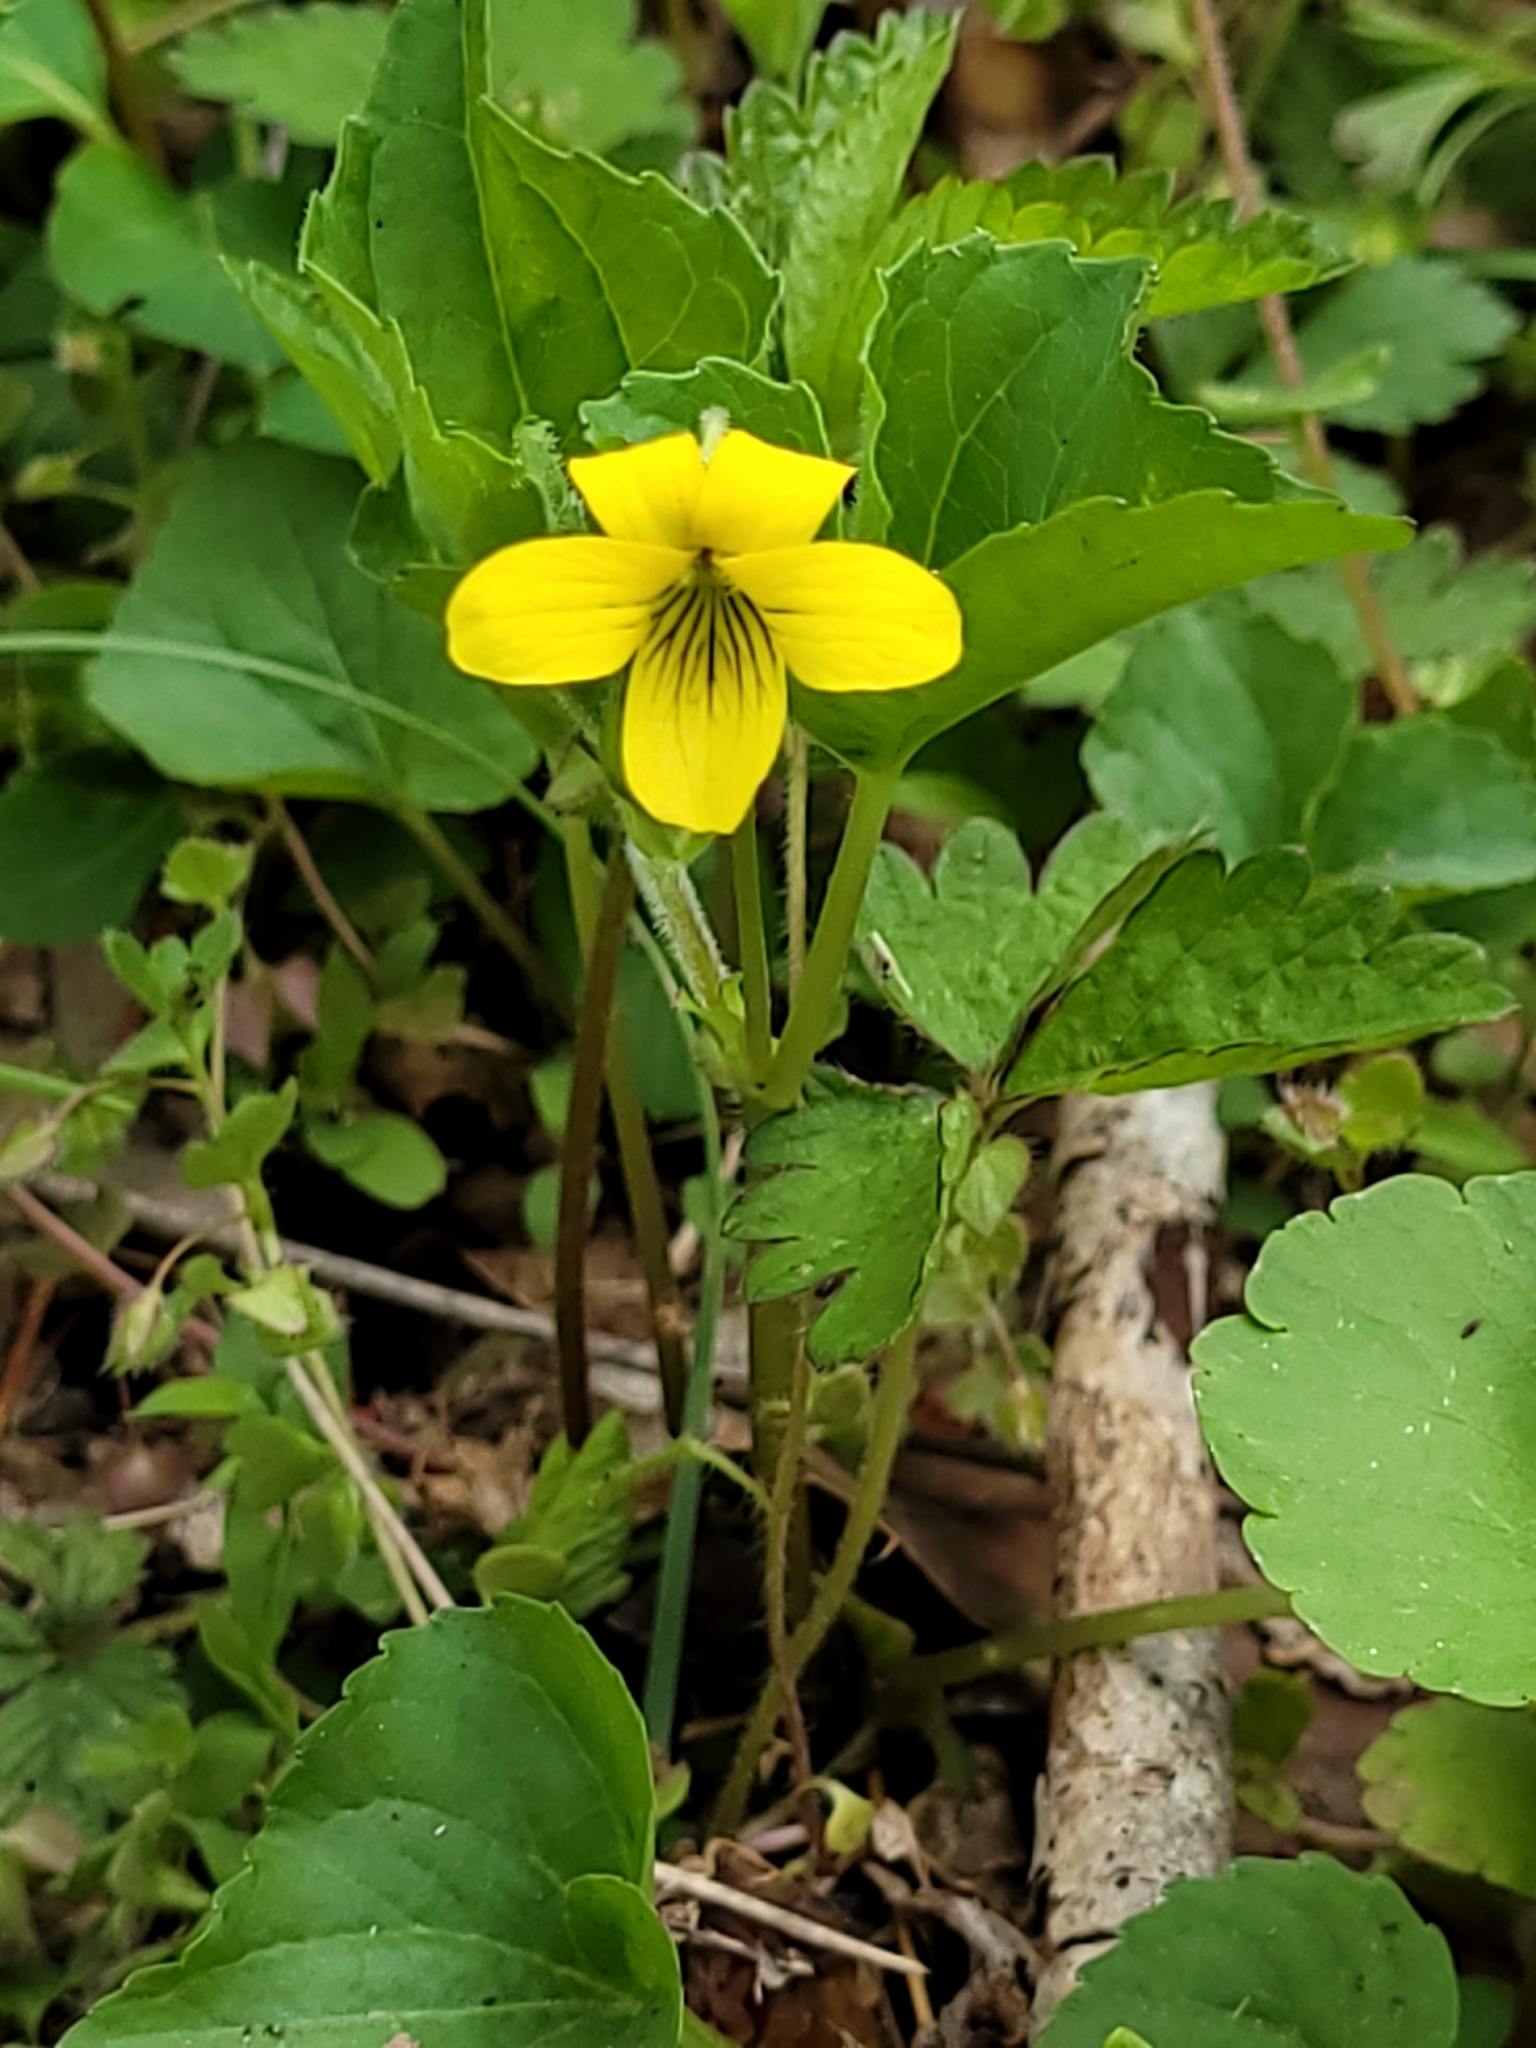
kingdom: Plantae
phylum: Tracheophyta
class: Magnoliopsida
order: Malpighiales
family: Violaceae
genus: Viola
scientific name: Viola eriocarpa
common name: Smooth yellow violet
